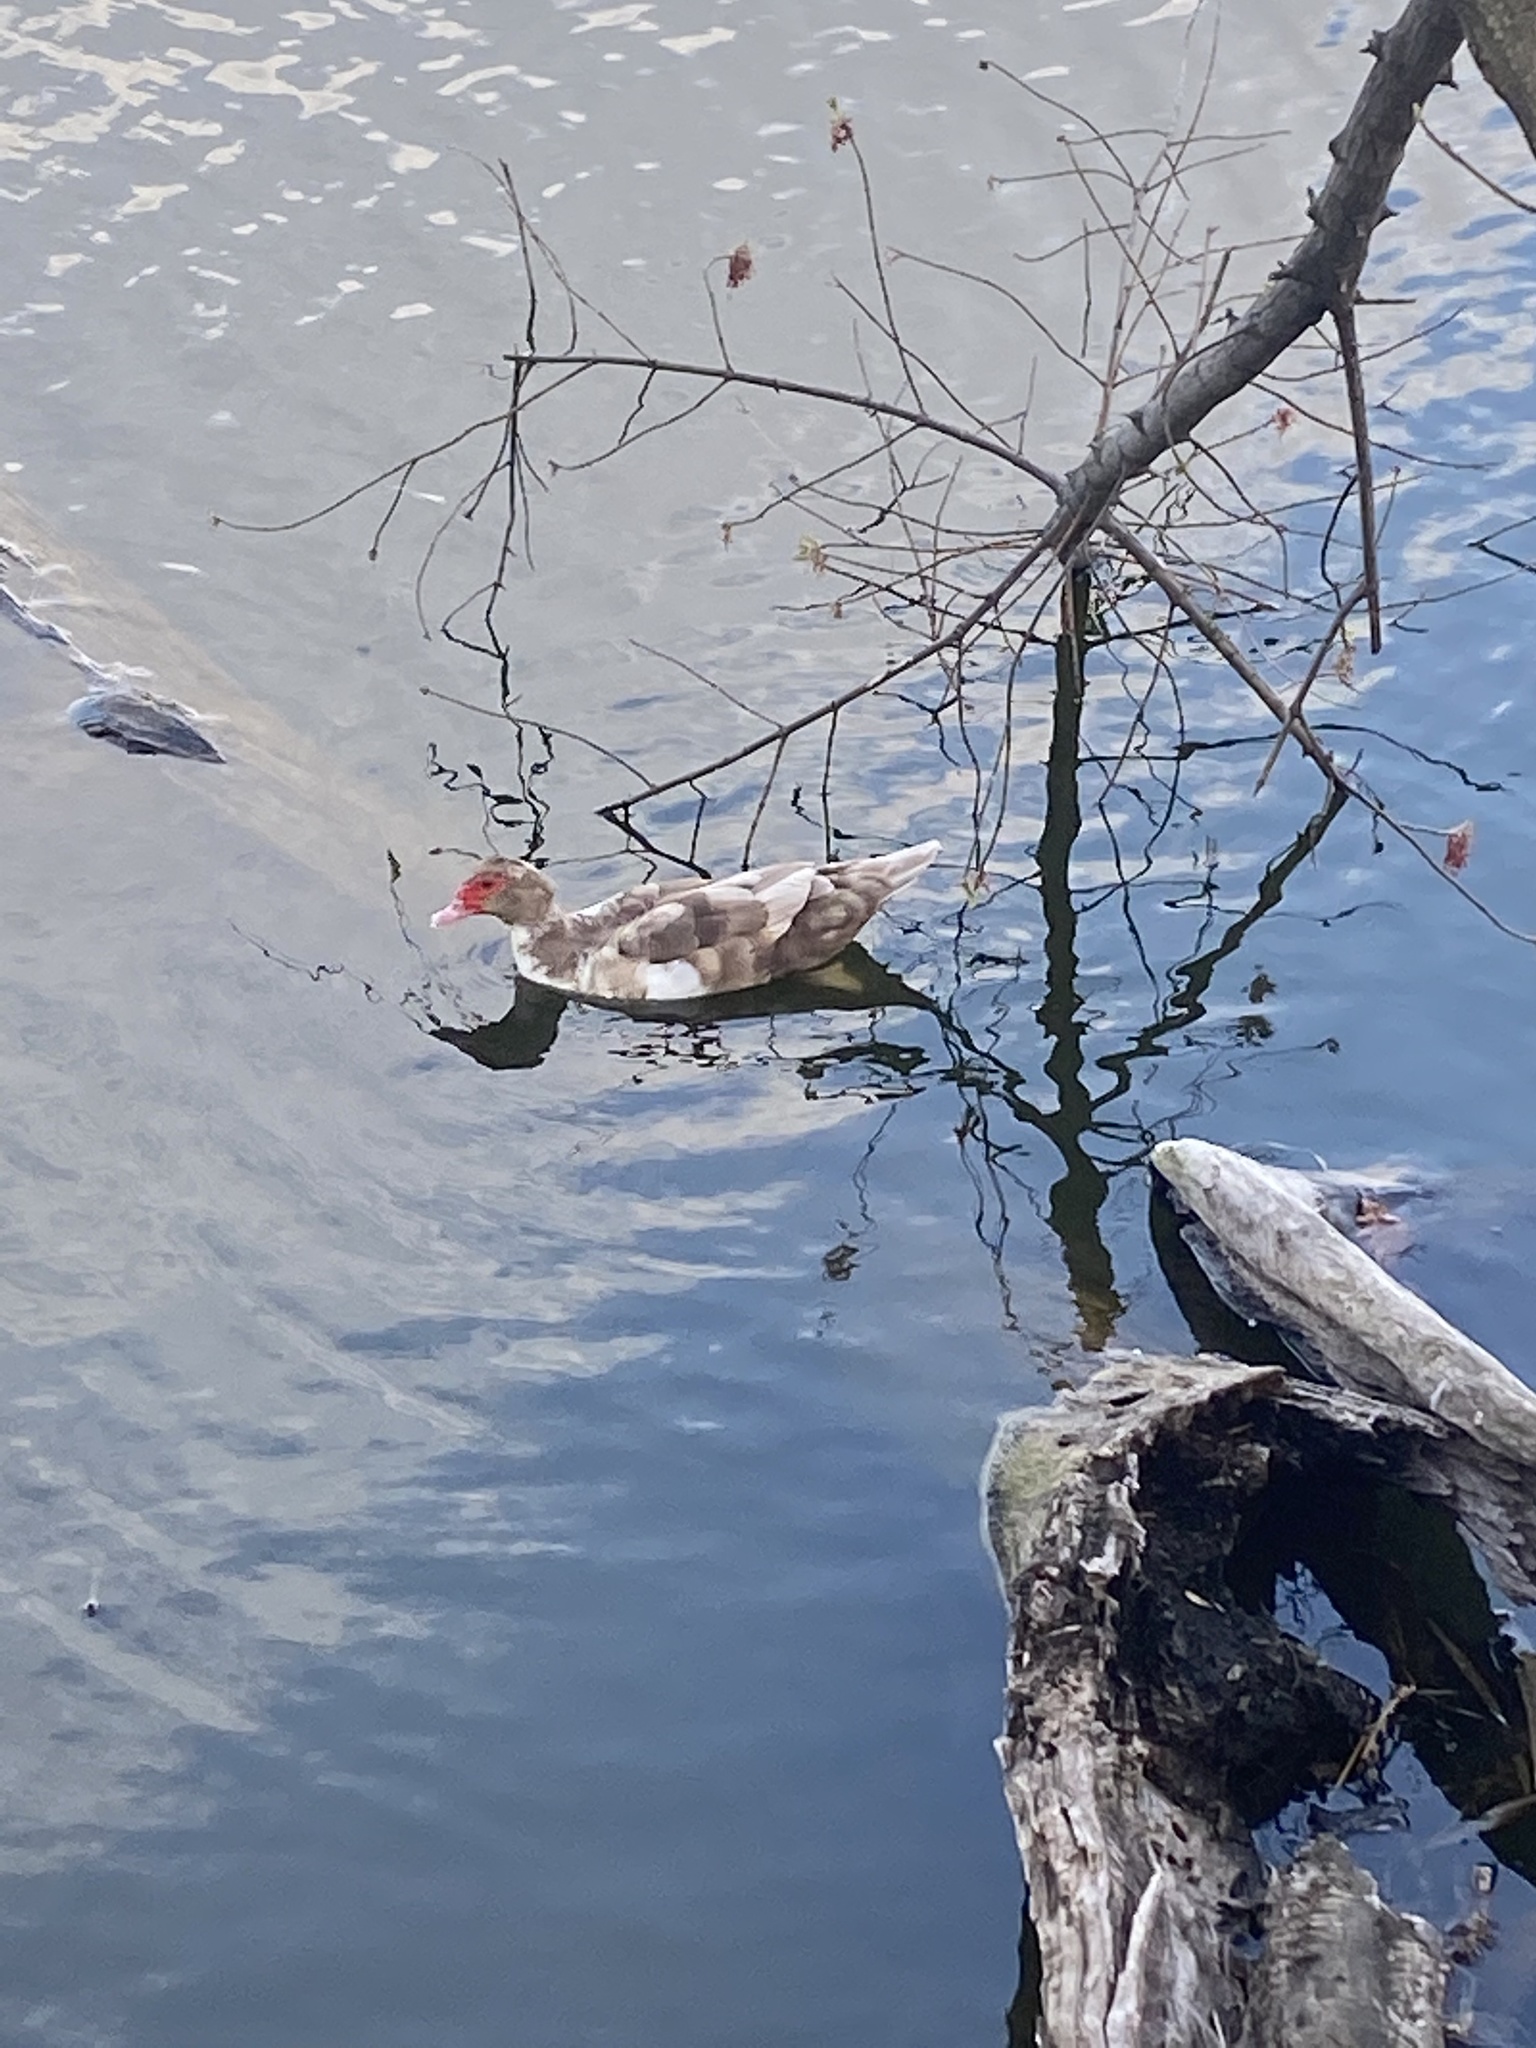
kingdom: Animalia
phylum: Chordata
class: Aves
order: Anseriformes
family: Anatidae
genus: Cairina
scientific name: Cairina moschata
